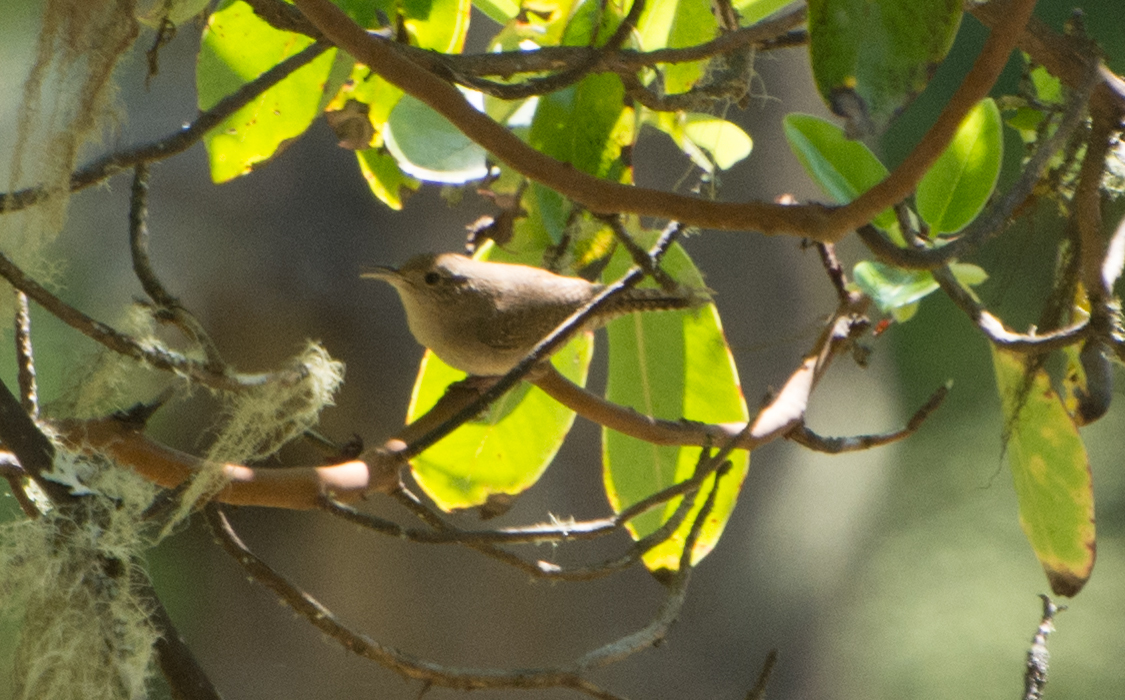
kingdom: Animalia
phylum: Chordata
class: Aves
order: Passeriformes
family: Troglodytidae
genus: Troglodytes
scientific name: Troglodytes aedon
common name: House wren
